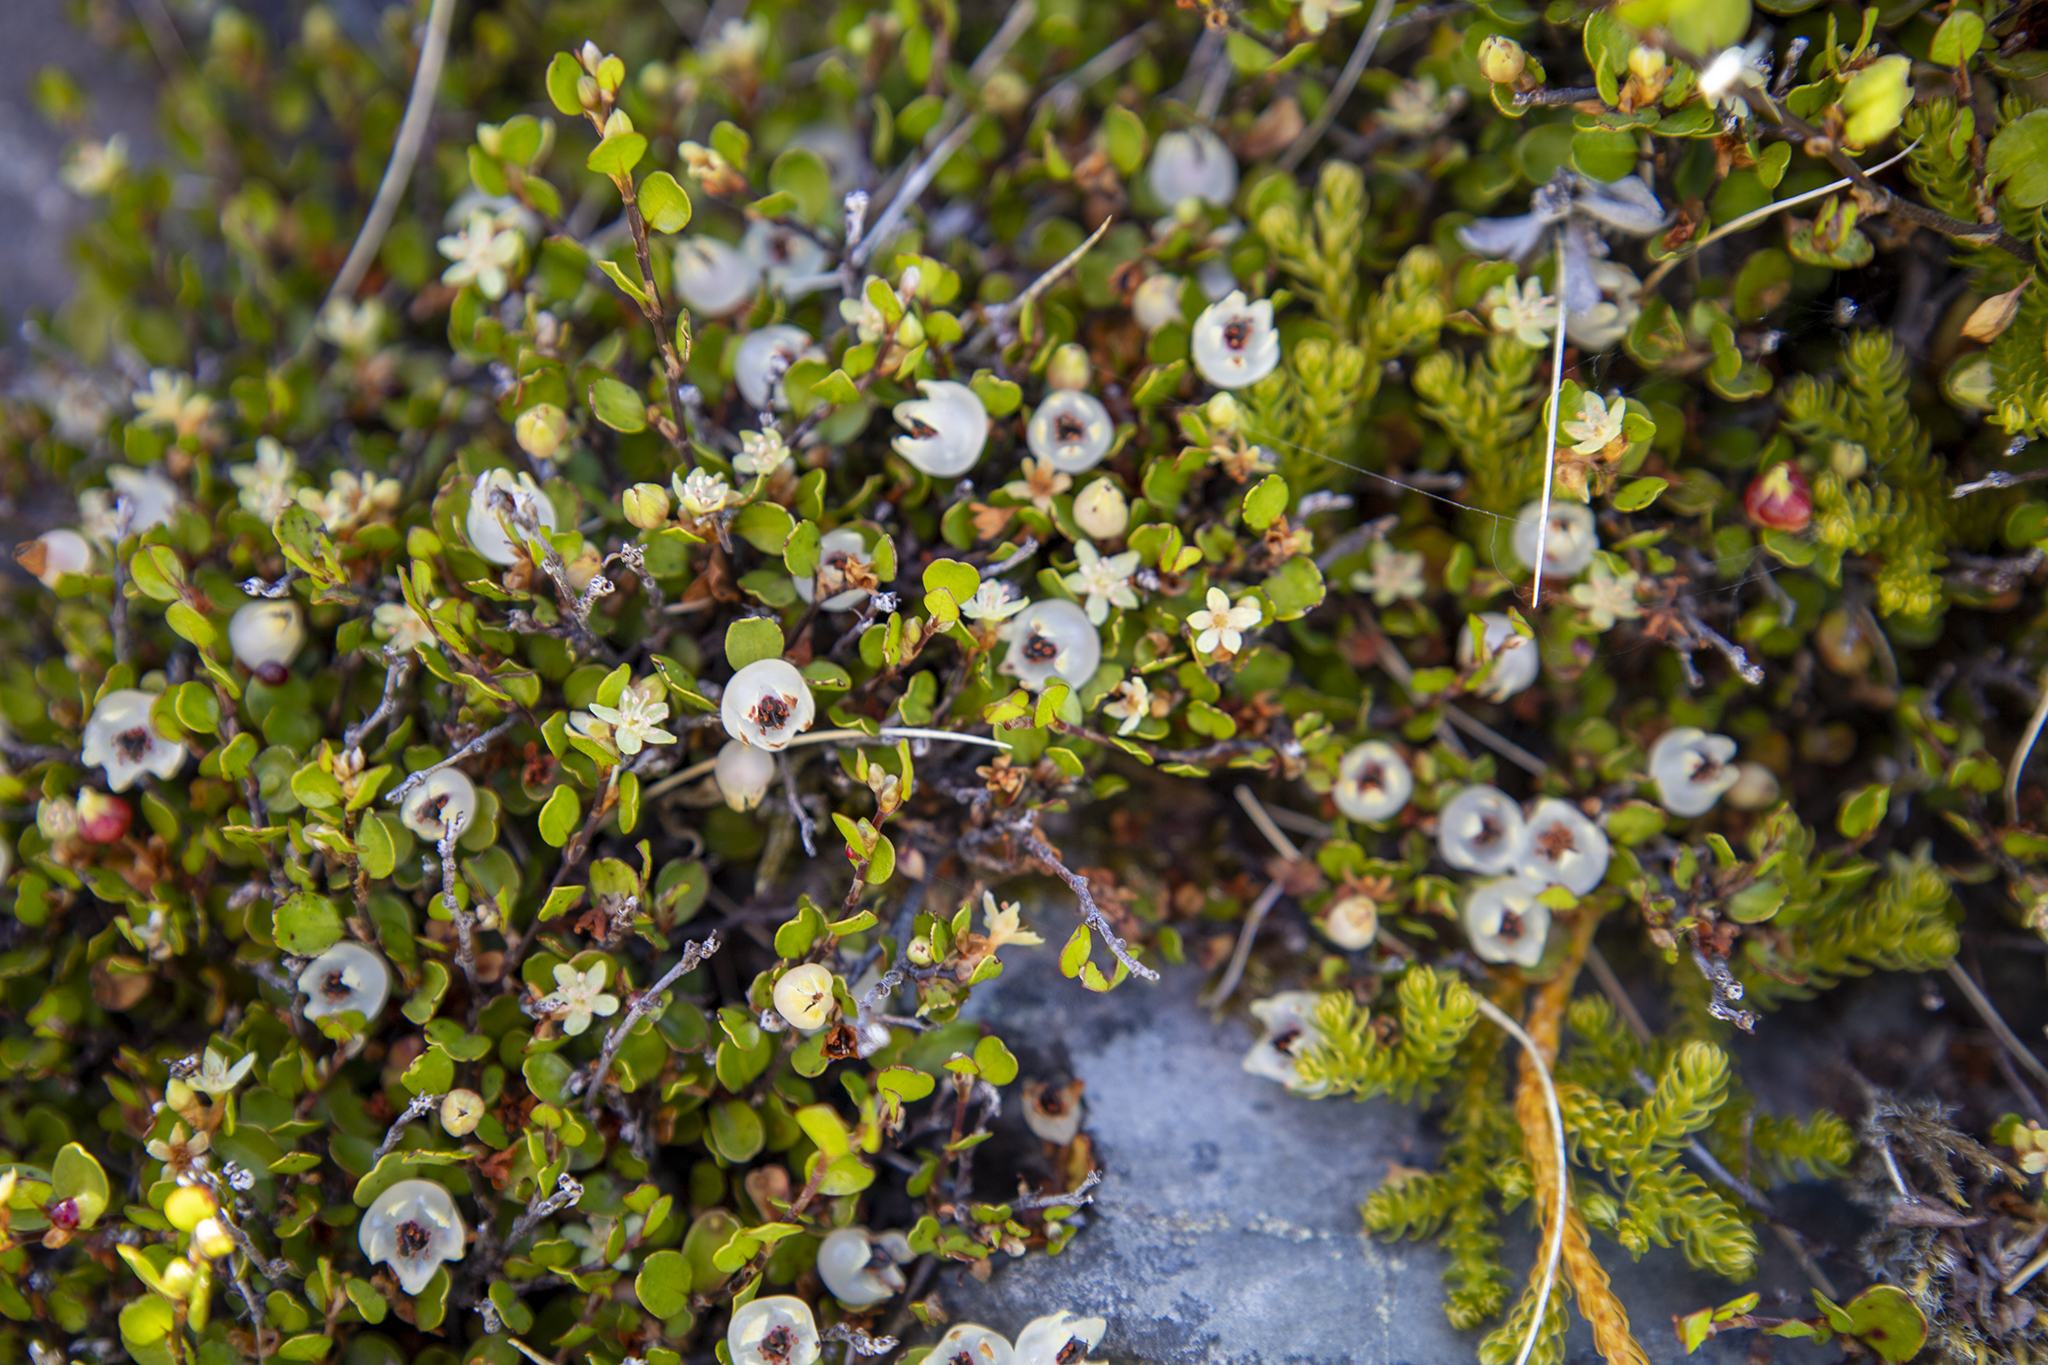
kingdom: Plantae
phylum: Tracheophyta
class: Magnoliopsida
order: Caryophyllales
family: Polygonaceae
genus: Muehlenbeckia
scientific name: Muehlenbeckia axillaris
